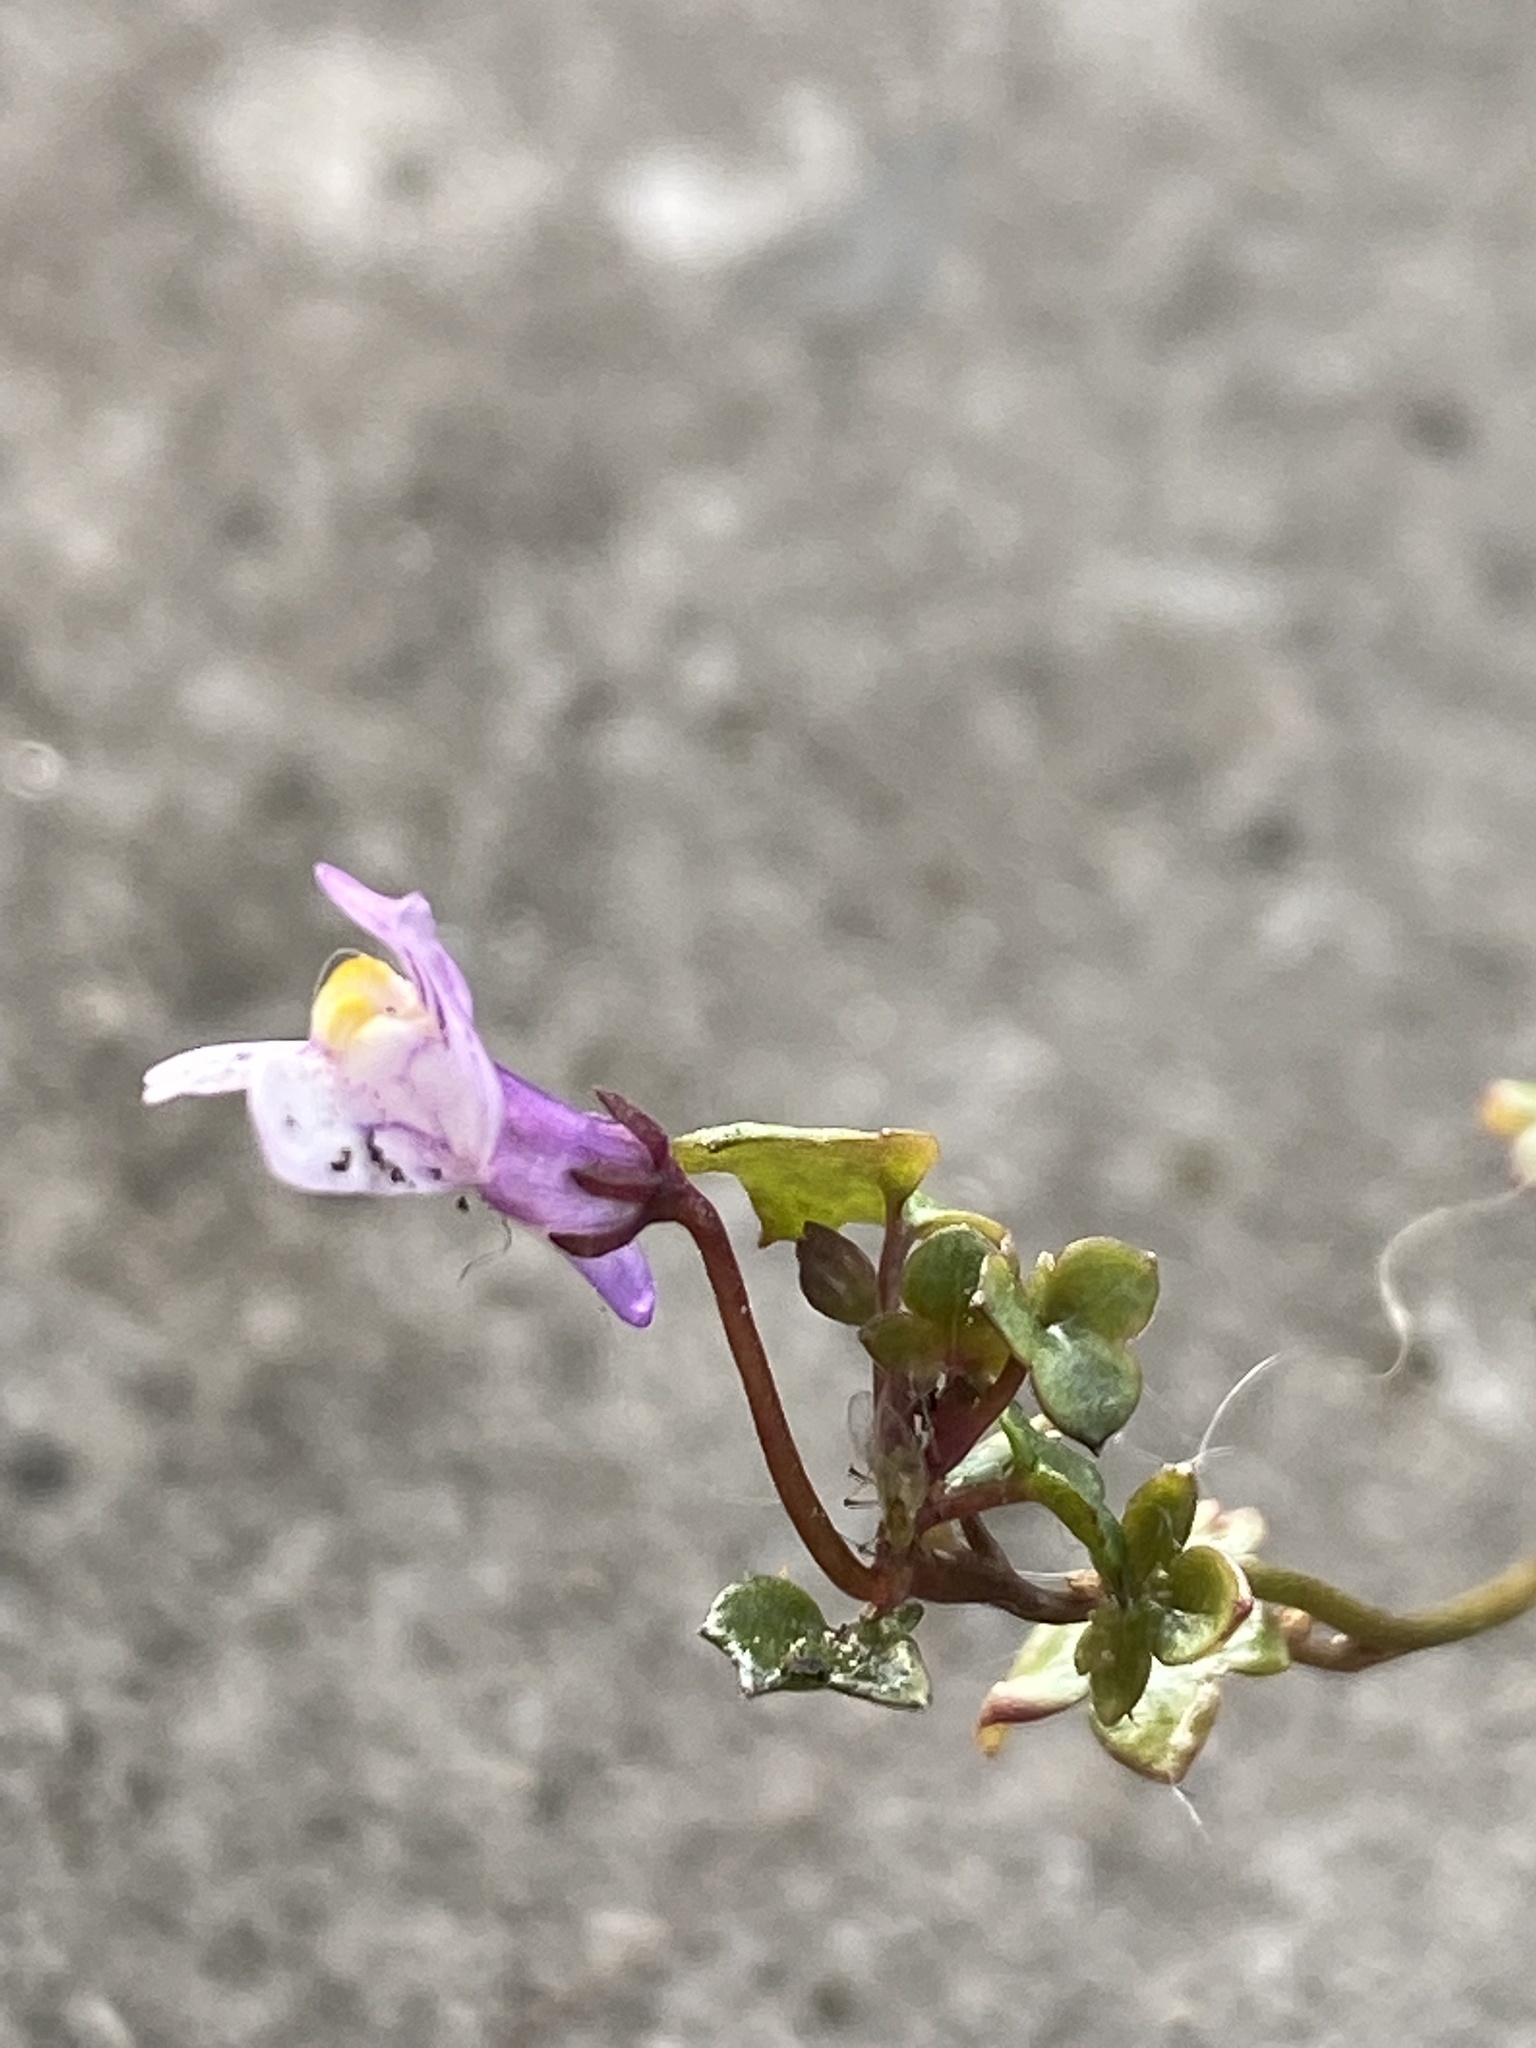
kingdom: Plantae
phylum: Tracheophyta
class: Magnoliopsida
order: Lamiales
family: Plantaginaceae
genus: Cymbalaria
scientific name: Cymbalaria muralis
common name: Ivy-leaved toadflax
